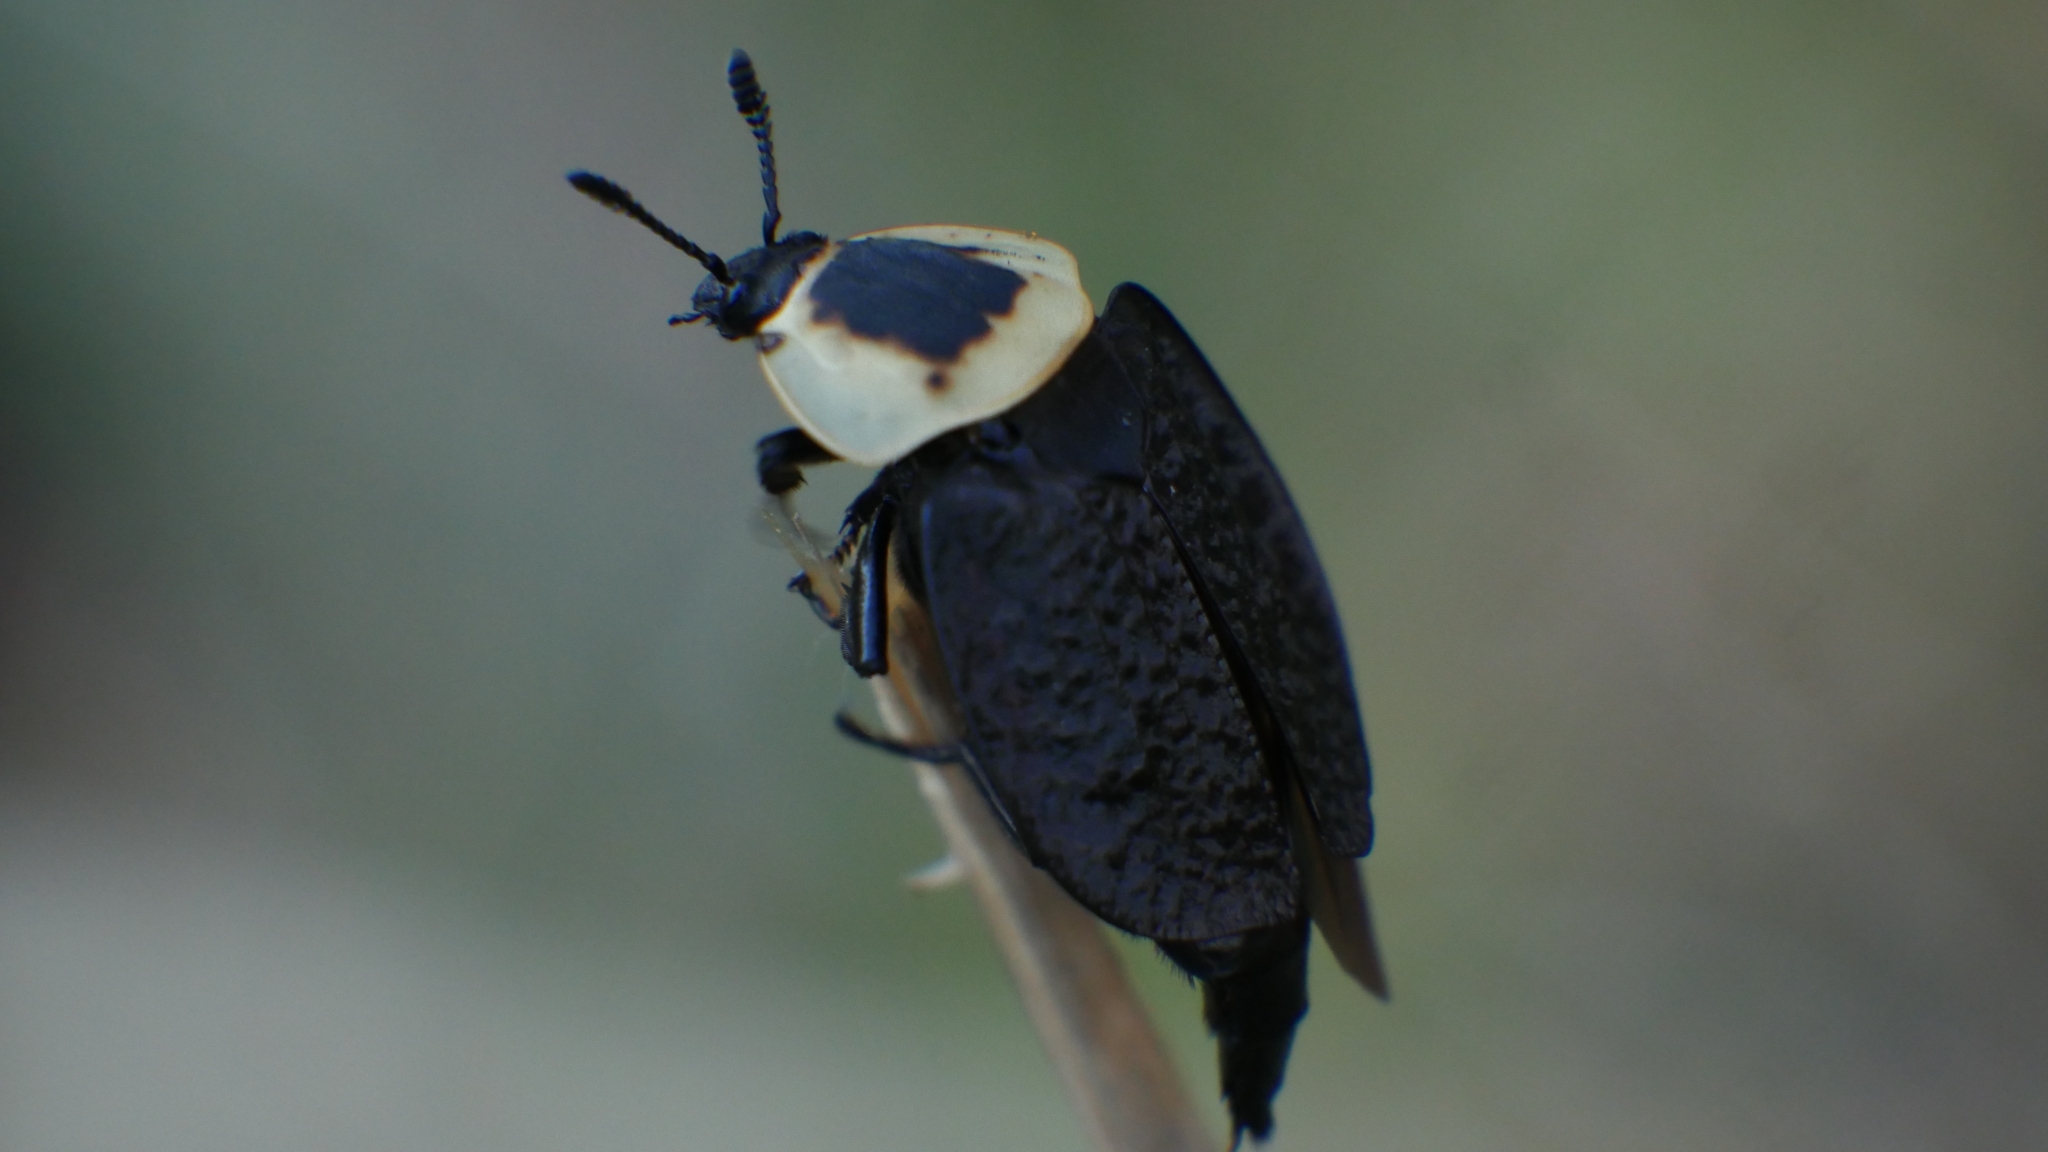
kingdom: Animalia
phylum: Arthropoda
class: Insecta
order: Coleoptera
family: Staphylinidae
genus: Necrophila
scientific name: Necrophila americana
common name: American carrion beetle
